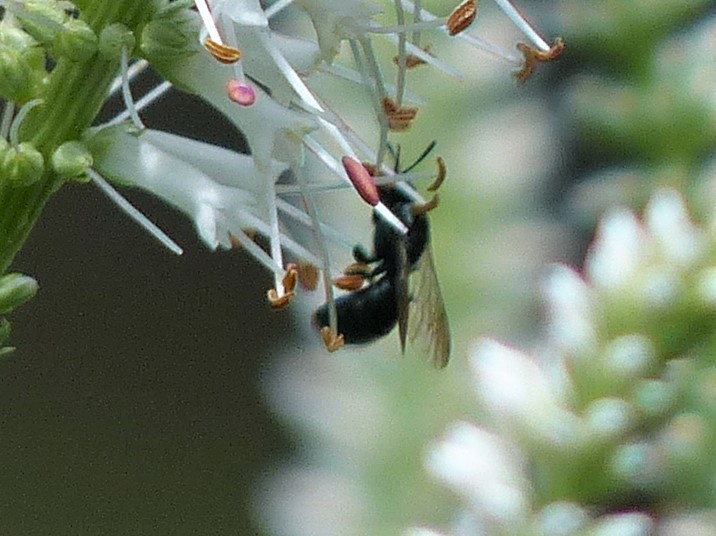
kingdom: Animalia
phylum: Arthropoda
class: Insecta
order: Hymenoptera
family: Apidae
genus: Ceratina
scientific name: Ceratina
